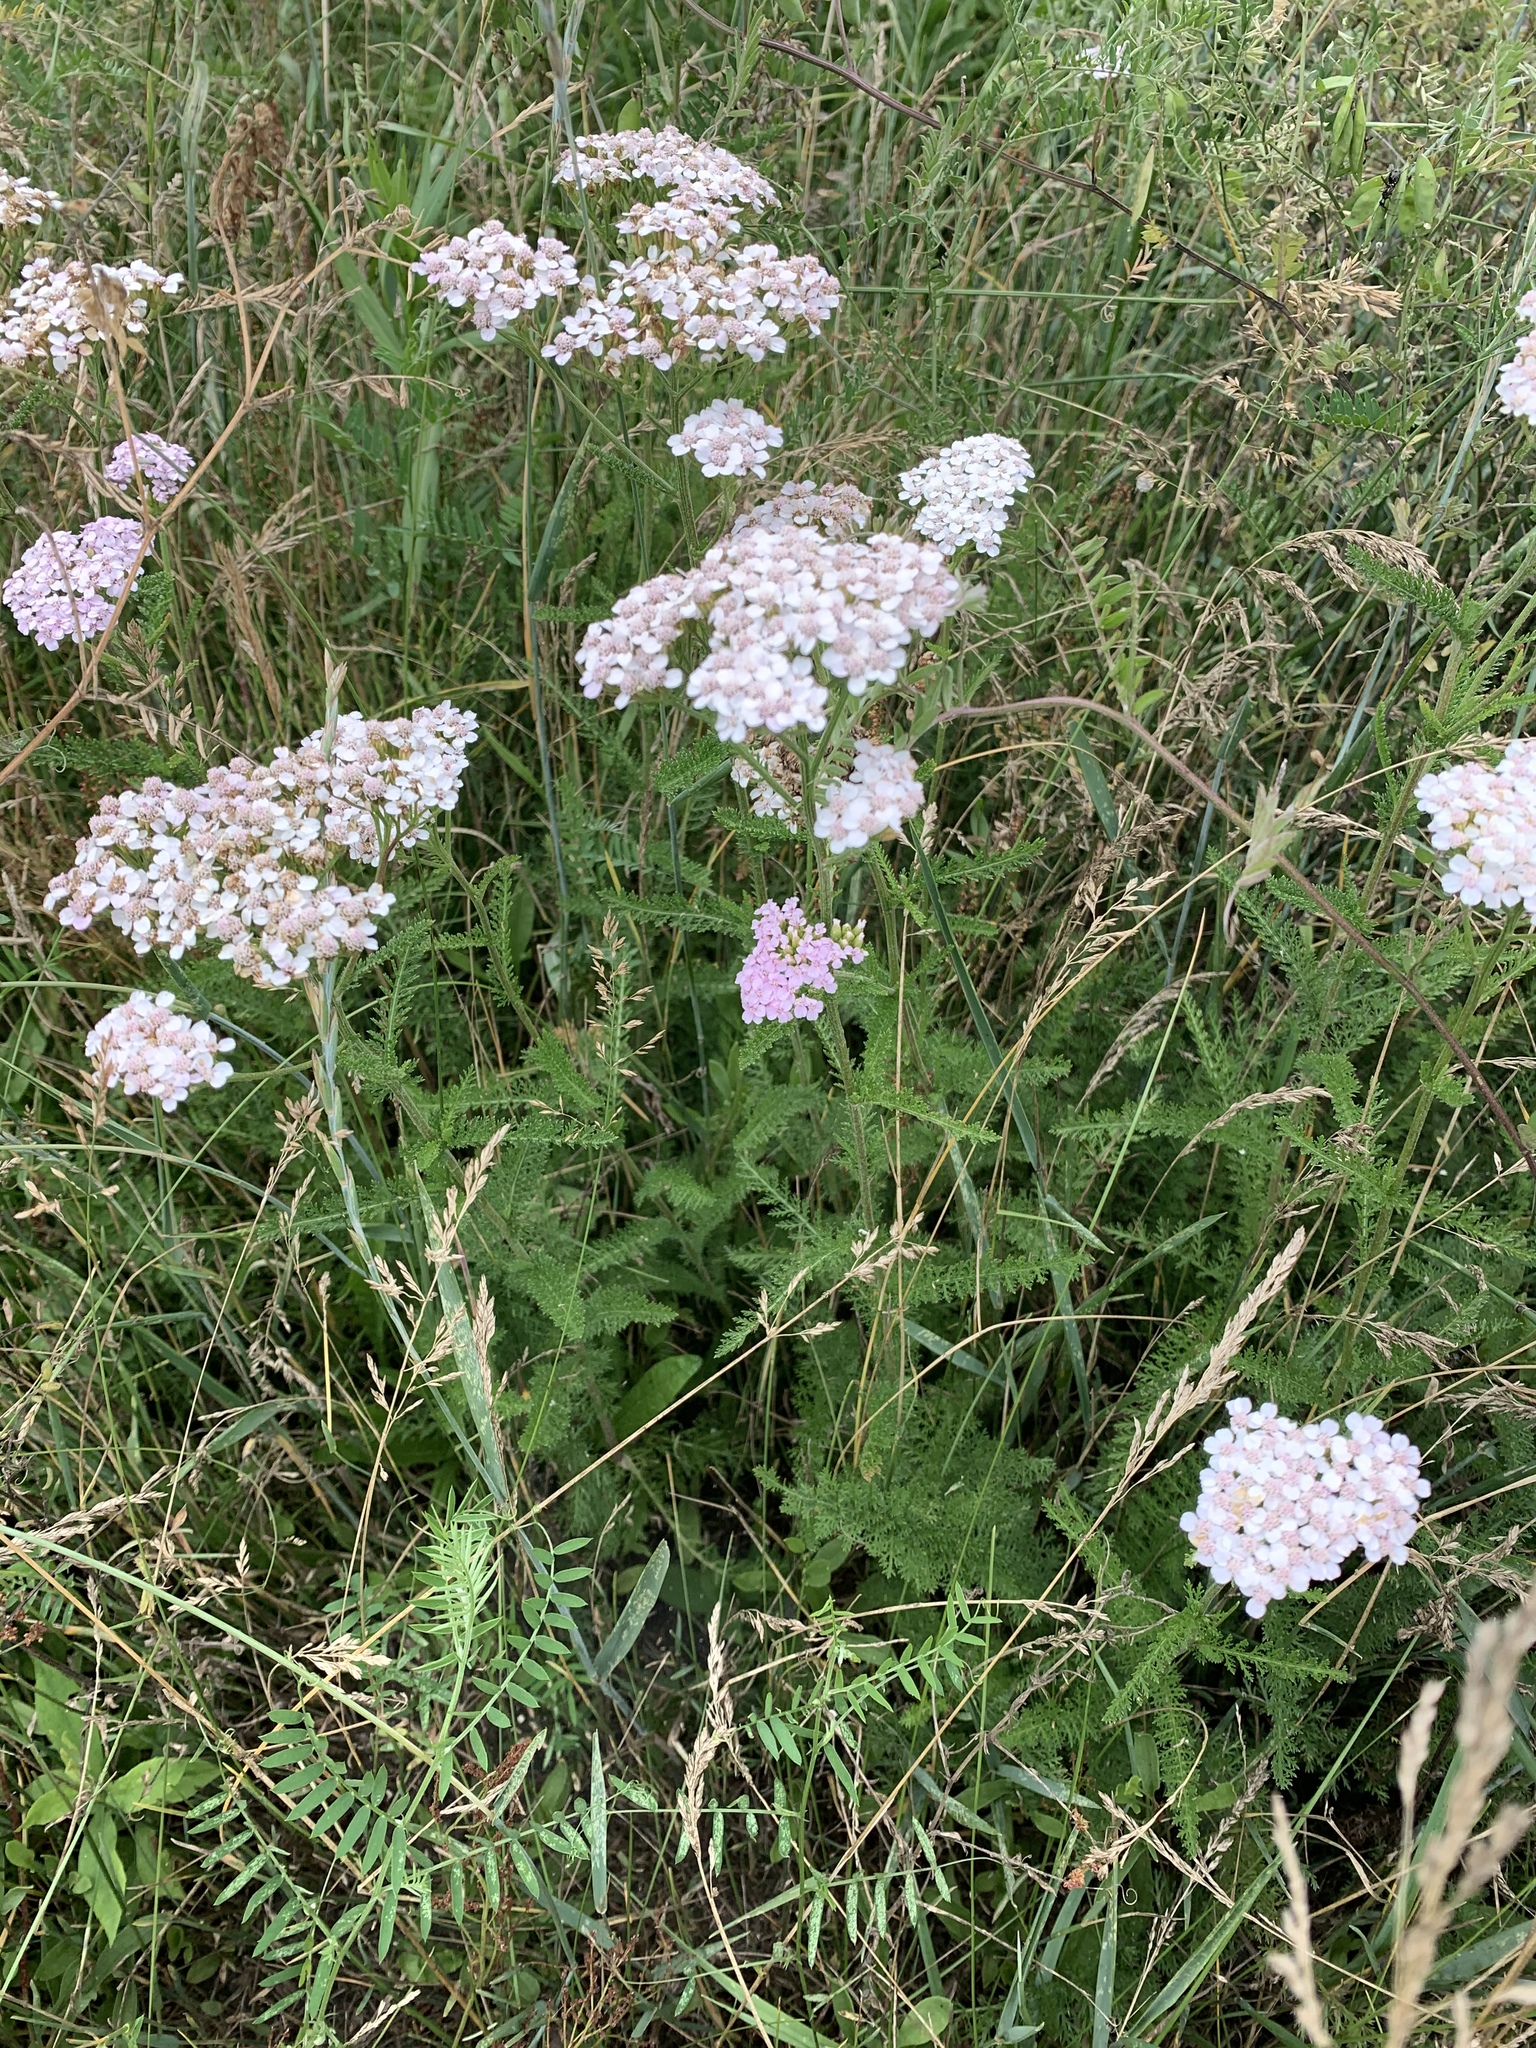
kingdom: Plantae
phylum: Tracheophyta
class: Magnoliopsida
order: Asterales
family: Asteraceae
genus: Achillea
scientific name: Achillea millefolium
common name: Yarrow
